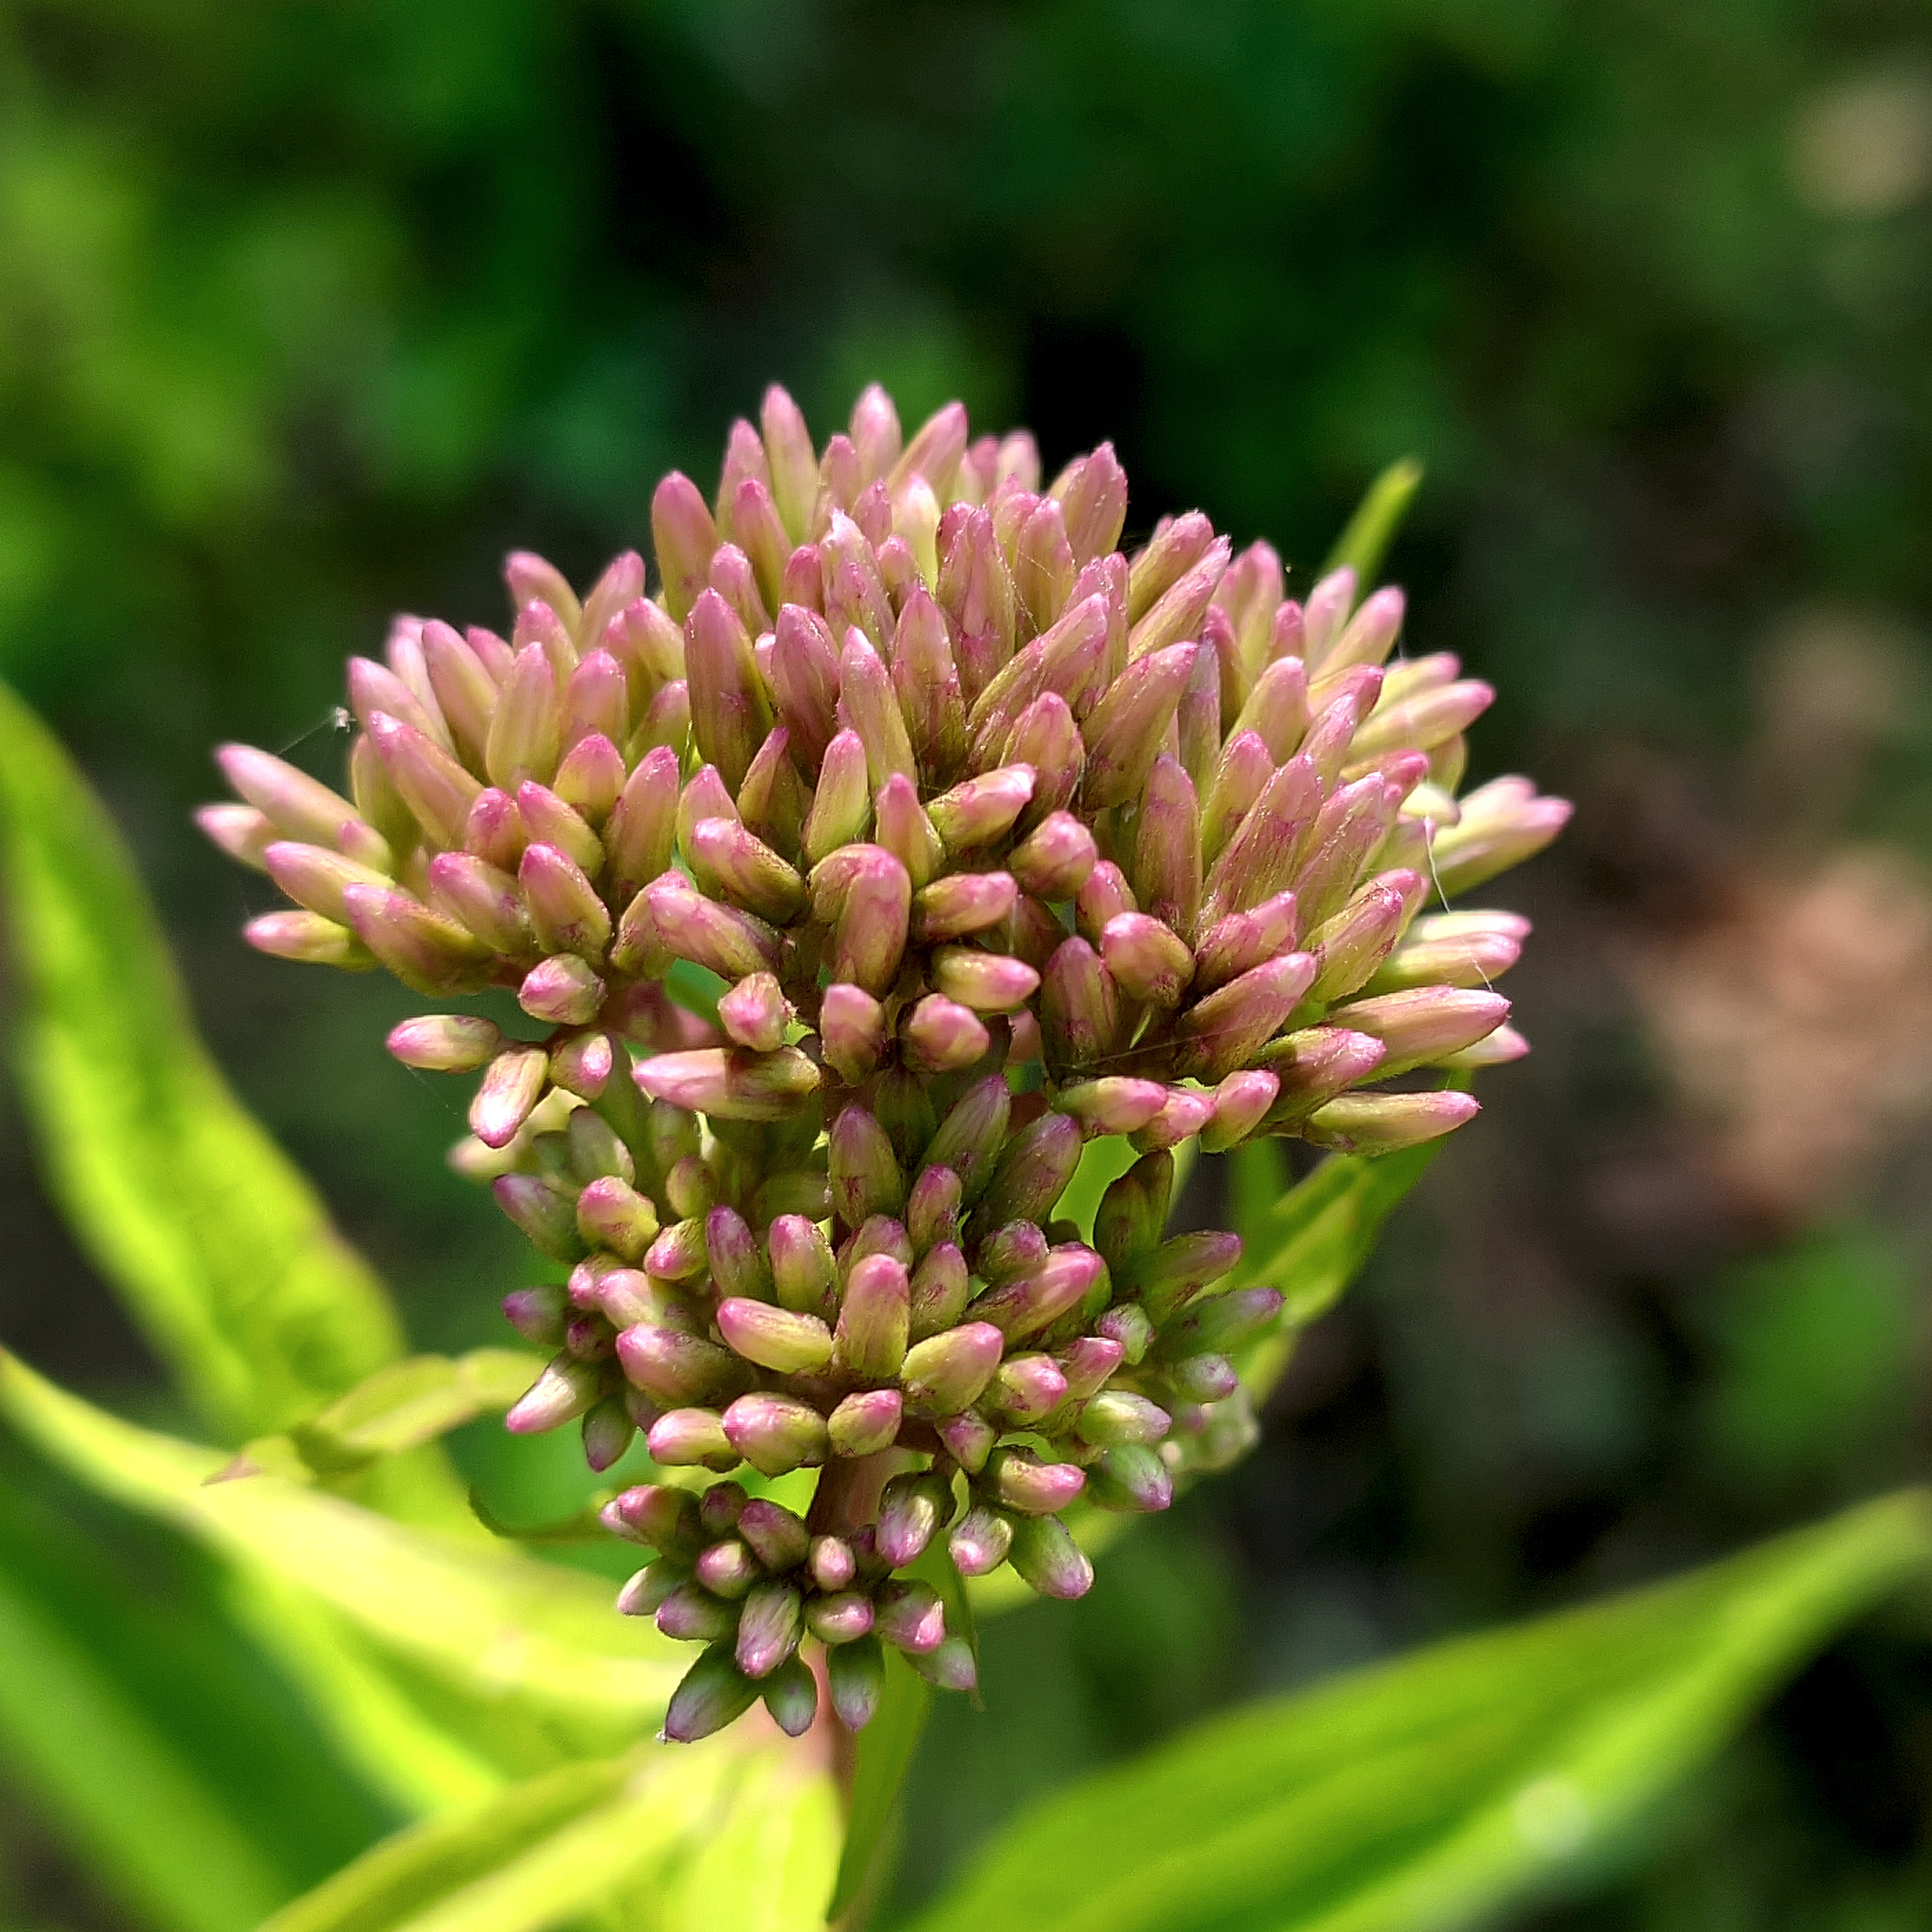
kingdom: Plantae
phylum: Tracheophyta
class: Magnoliopsida
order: Asterales
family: Asteraceae
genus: Eupatorium
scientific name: Eupatorium cannabinum
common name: Hemp-agrimony
